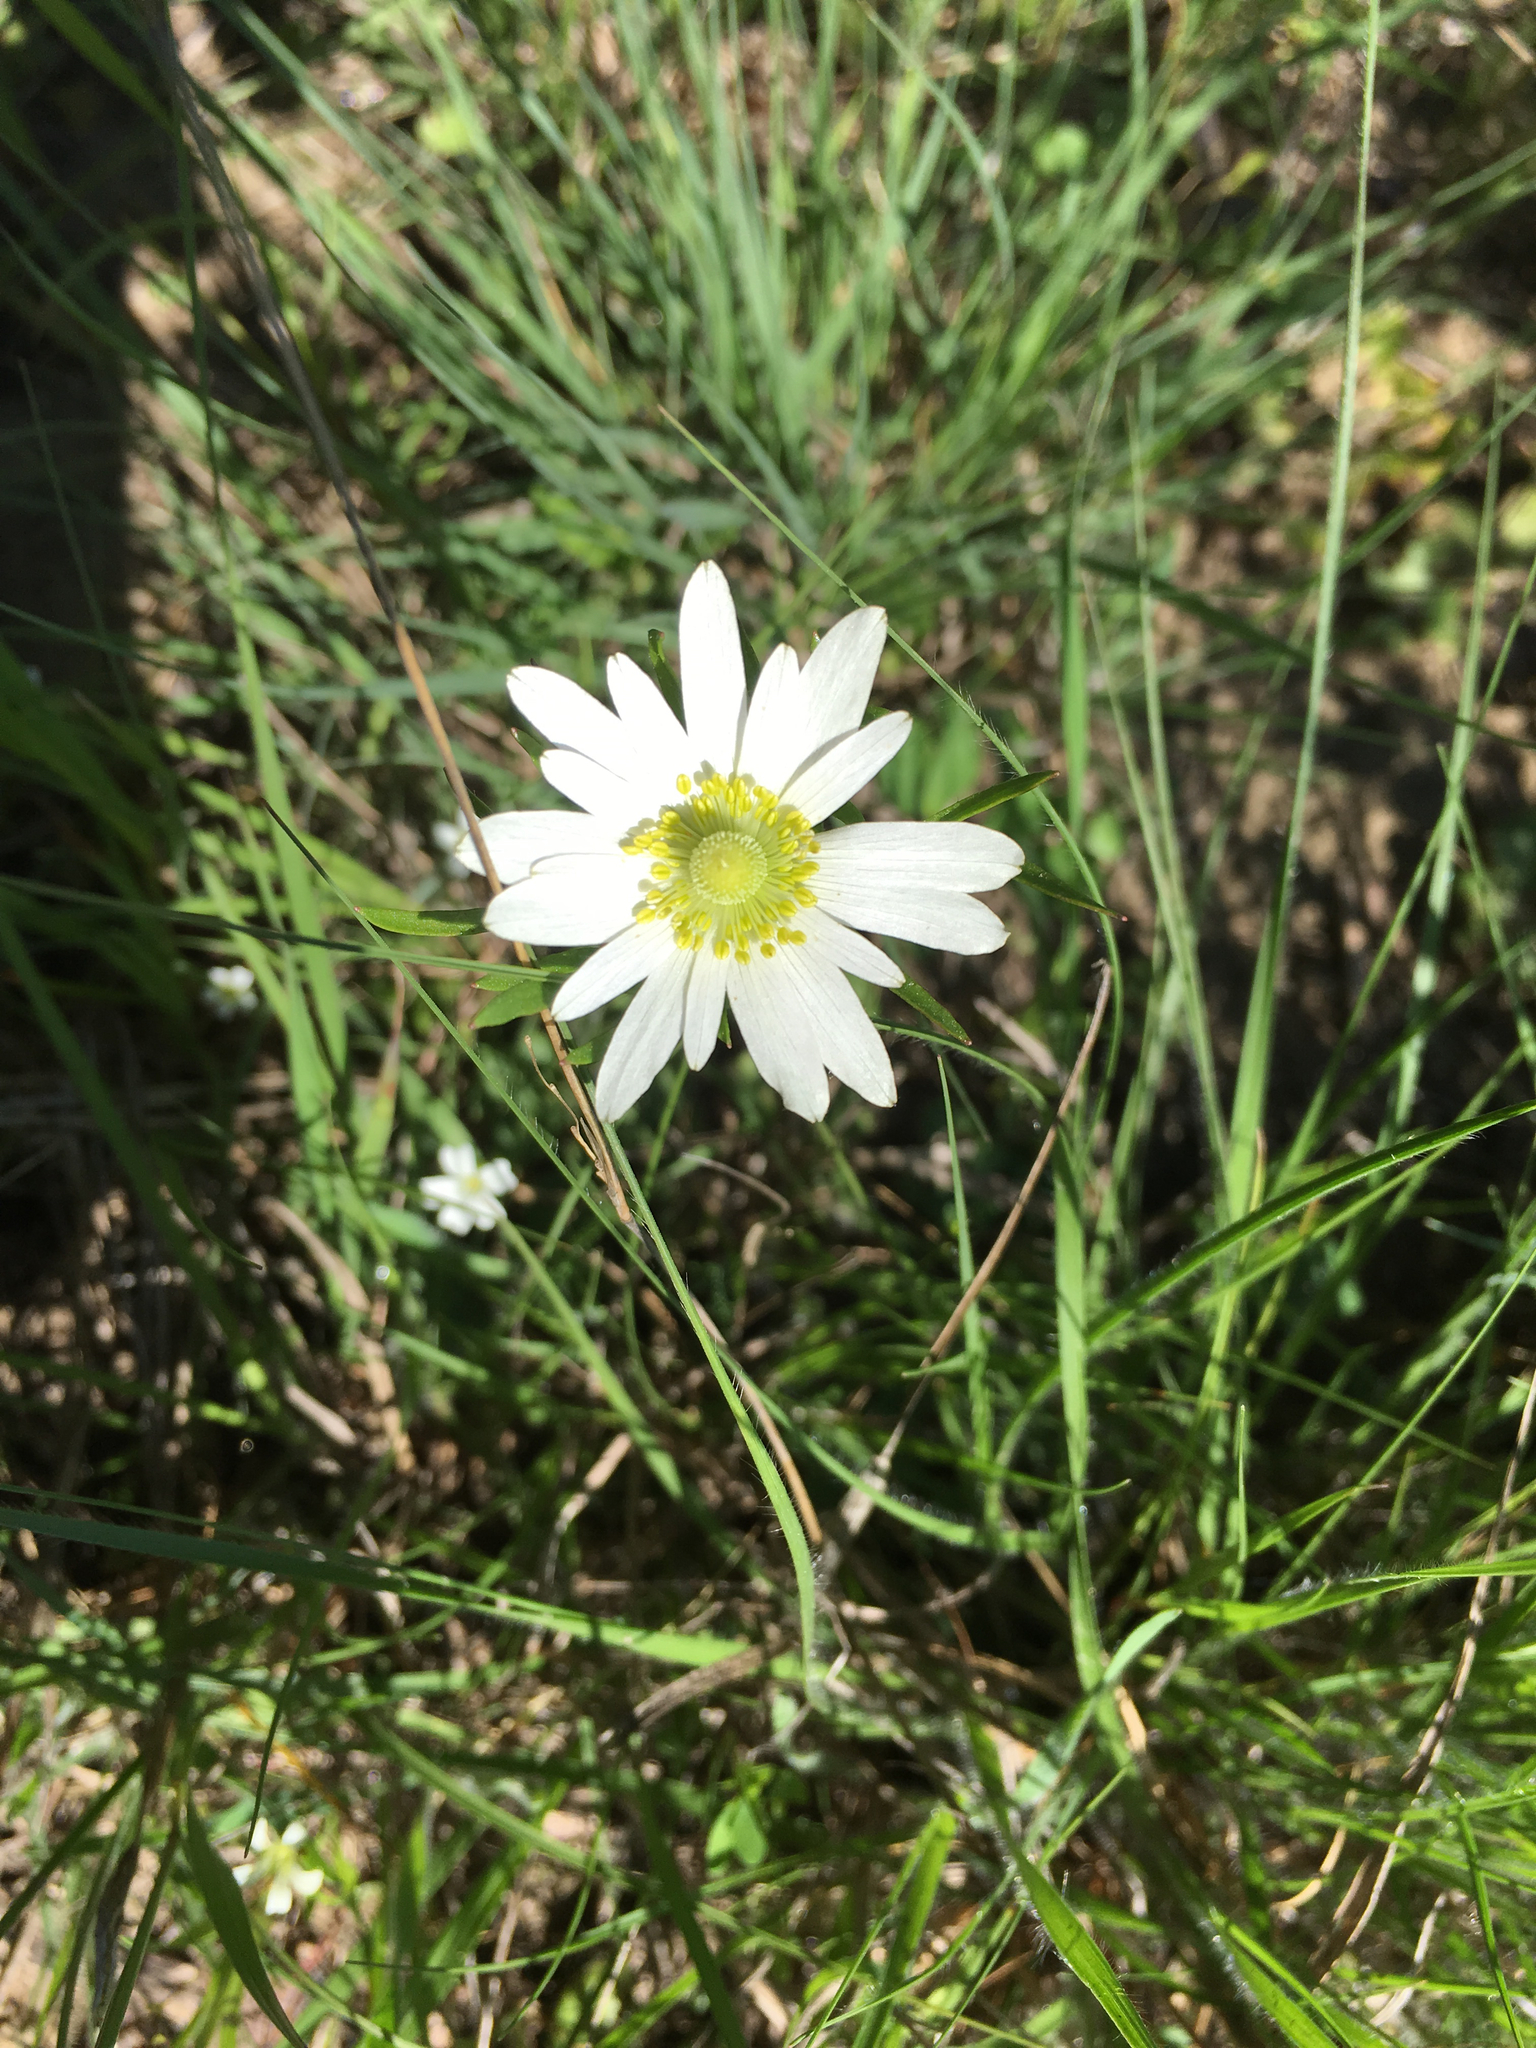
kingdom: Plantae
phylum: Tracheophyta
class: Magnoliopsida
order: Ranunculales
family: Ranunculaceae
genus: Anemone
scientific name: Anemone berlandieri
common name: Ten-petal anemone
